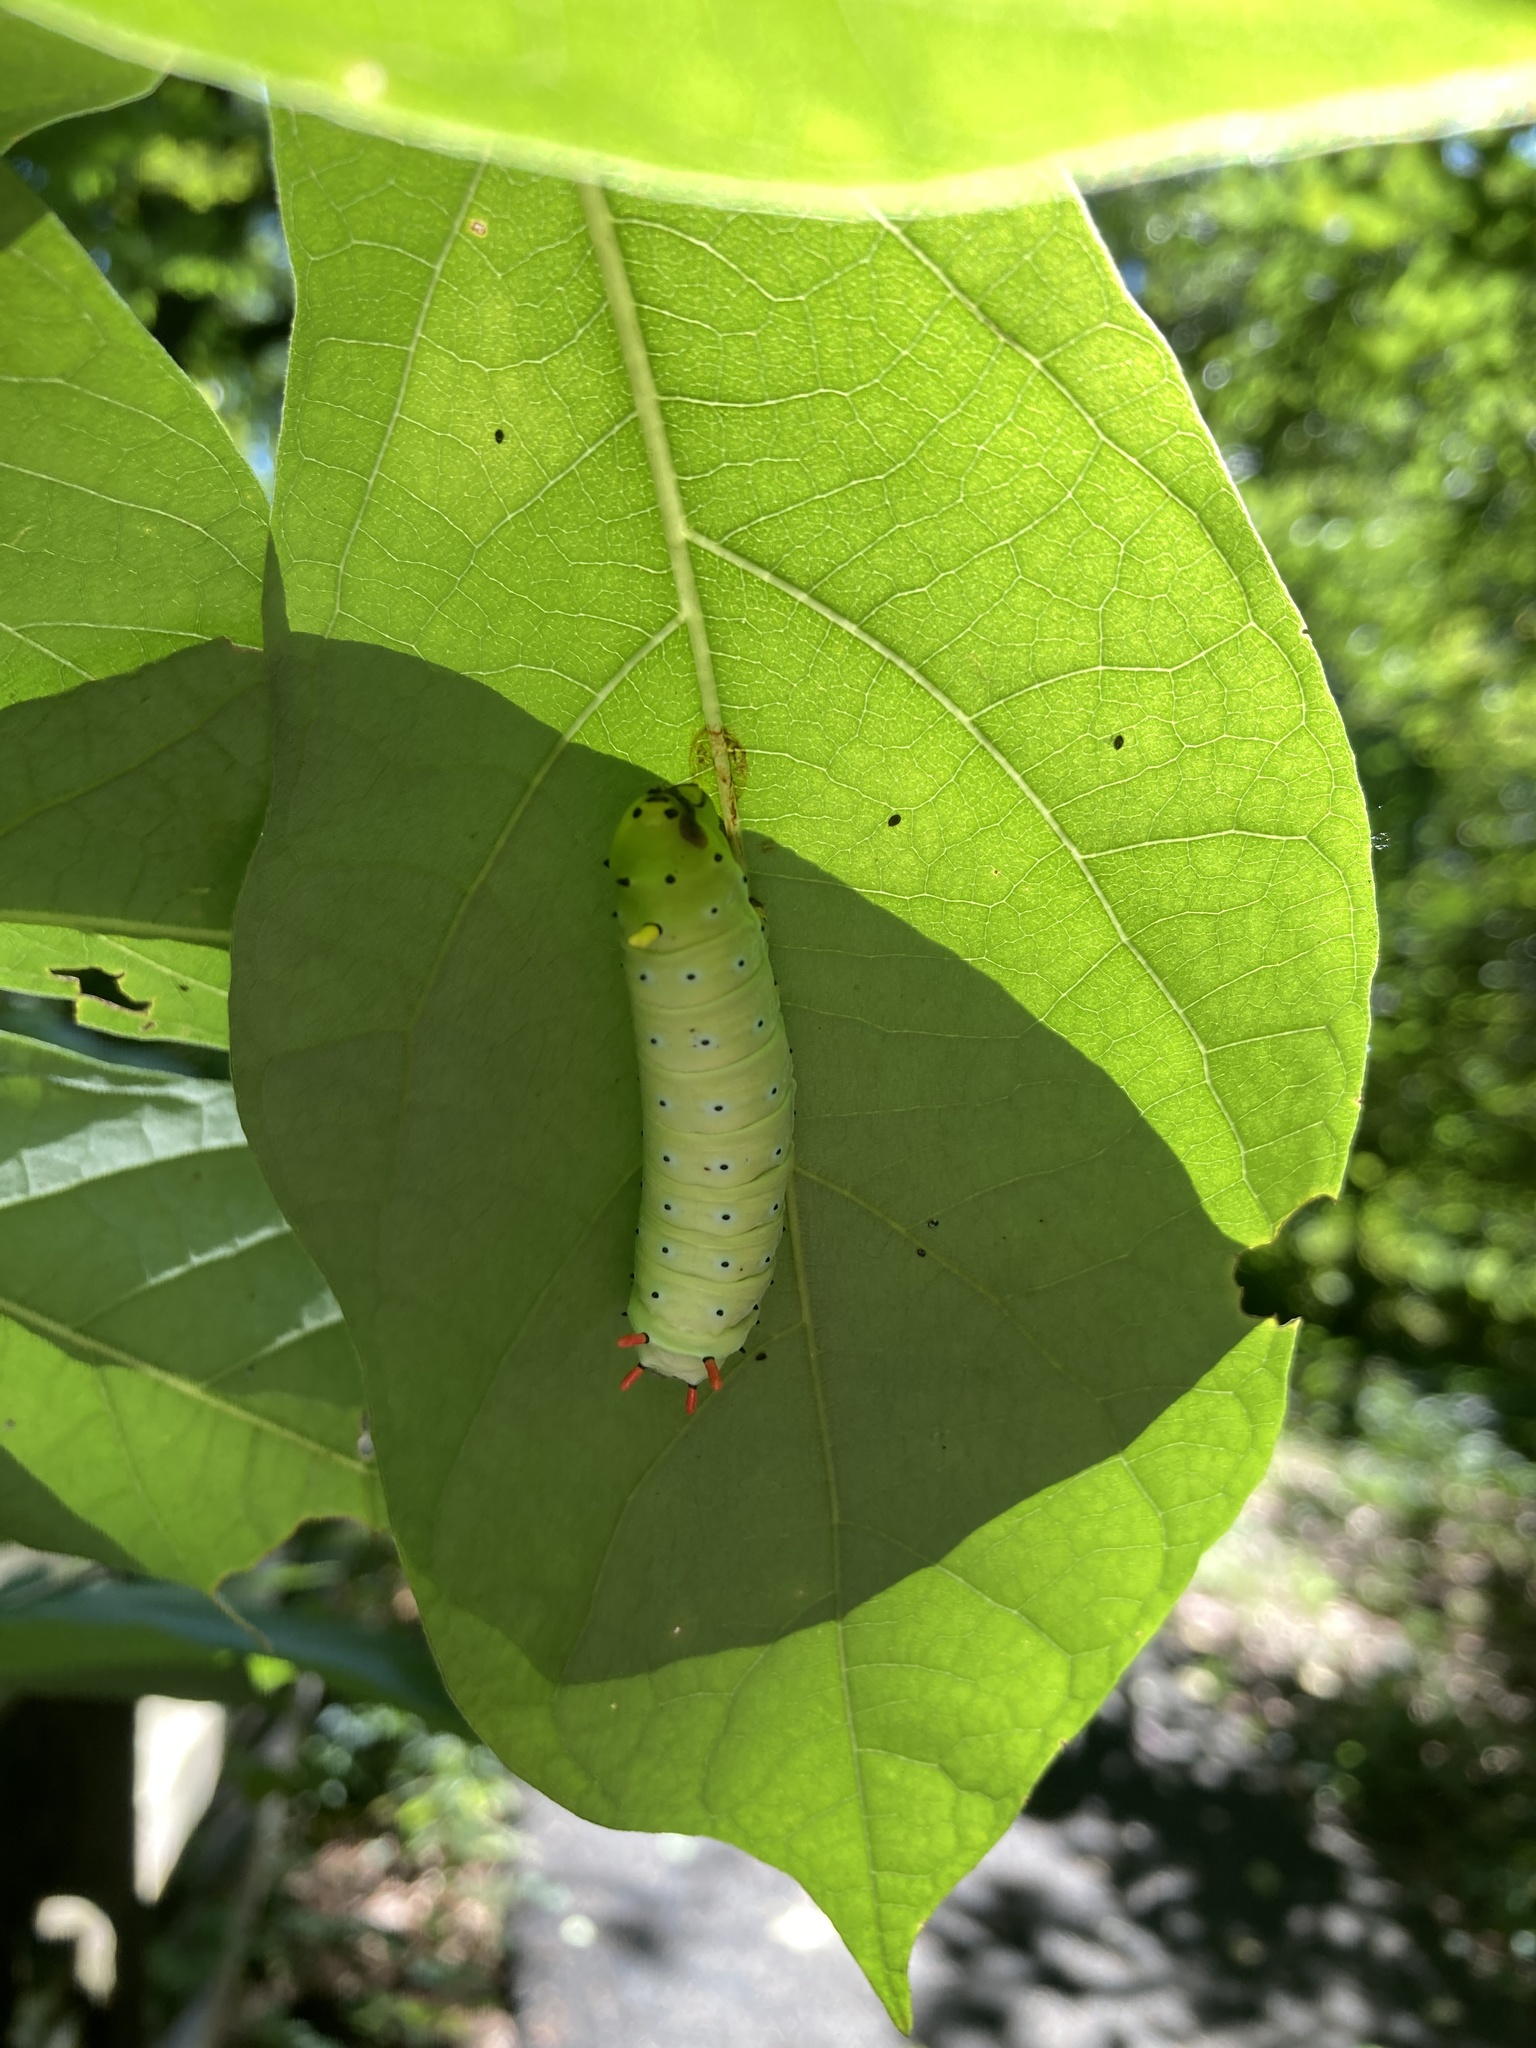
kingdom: Animalia
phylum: Arthropoda
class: Insecta
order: Lepidoptera
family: Saturniidae
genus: Callosamia
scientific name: Callosamia promethea
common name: Promethea silkmoth
